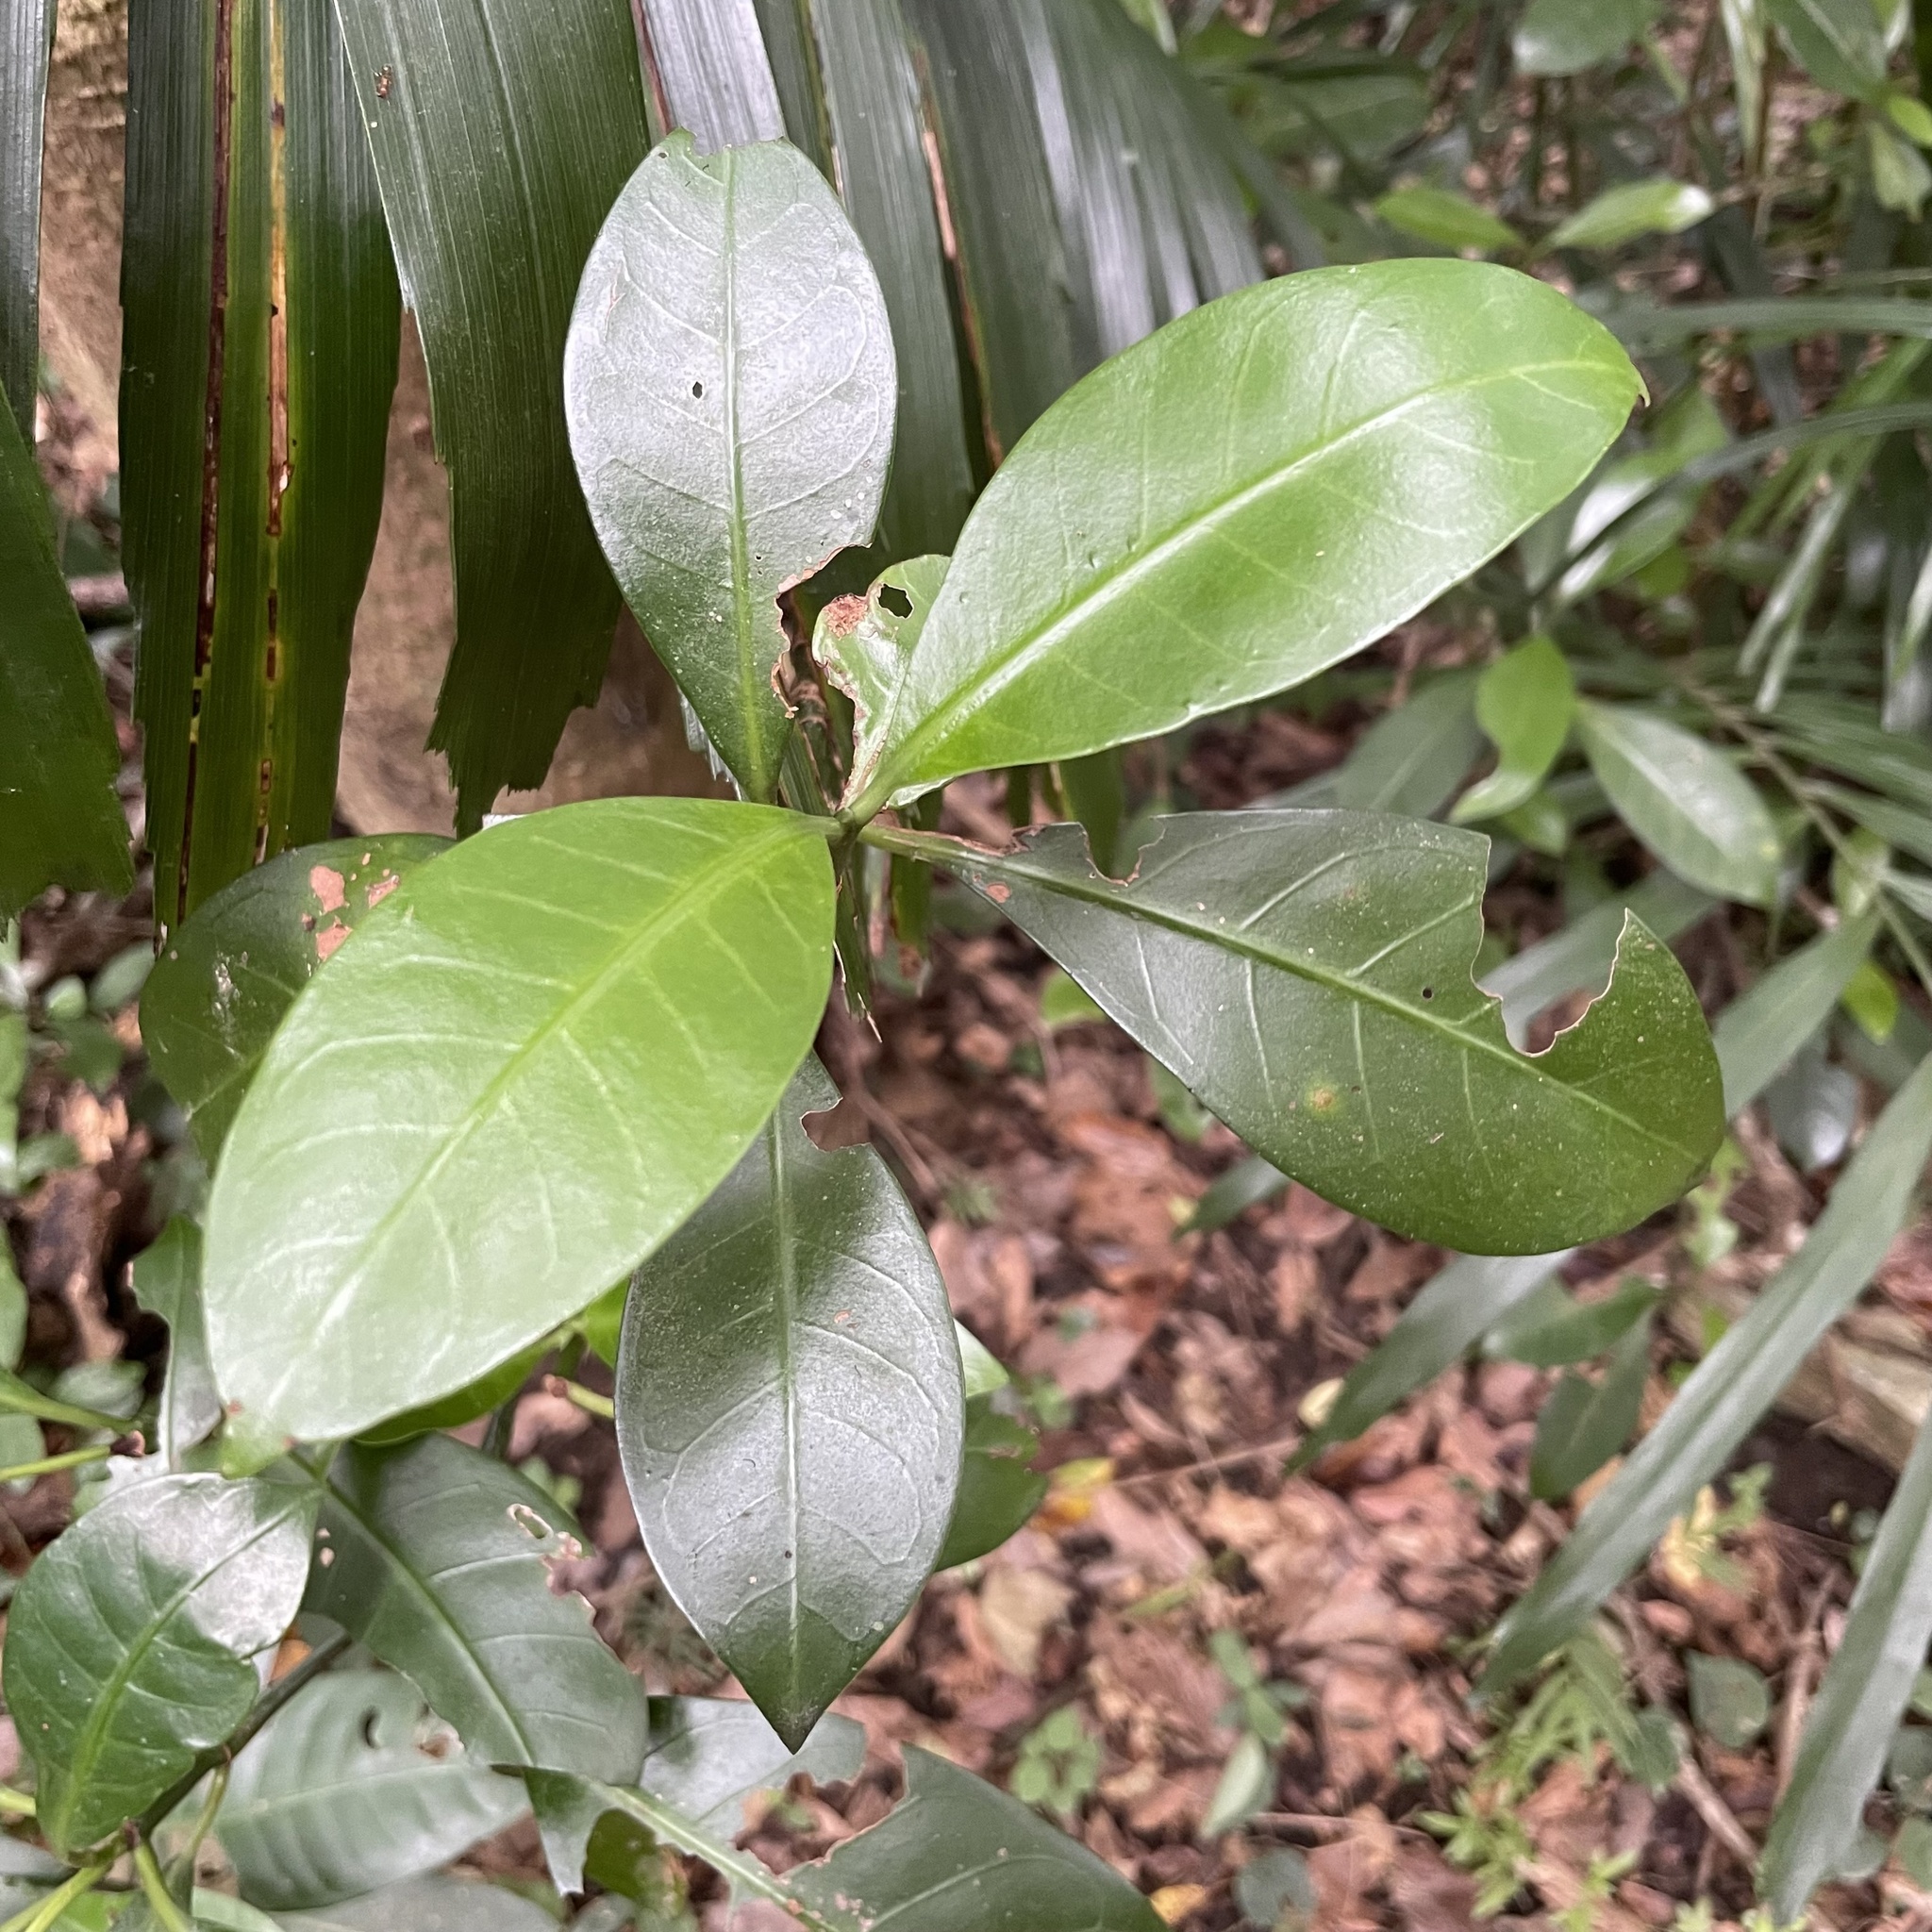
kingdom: Plantae
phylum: Tracheophyta
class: Magnoliopsida
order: Gentianales
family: Rubiaceae
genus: Psychotria
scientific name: Psychotria manillensis
